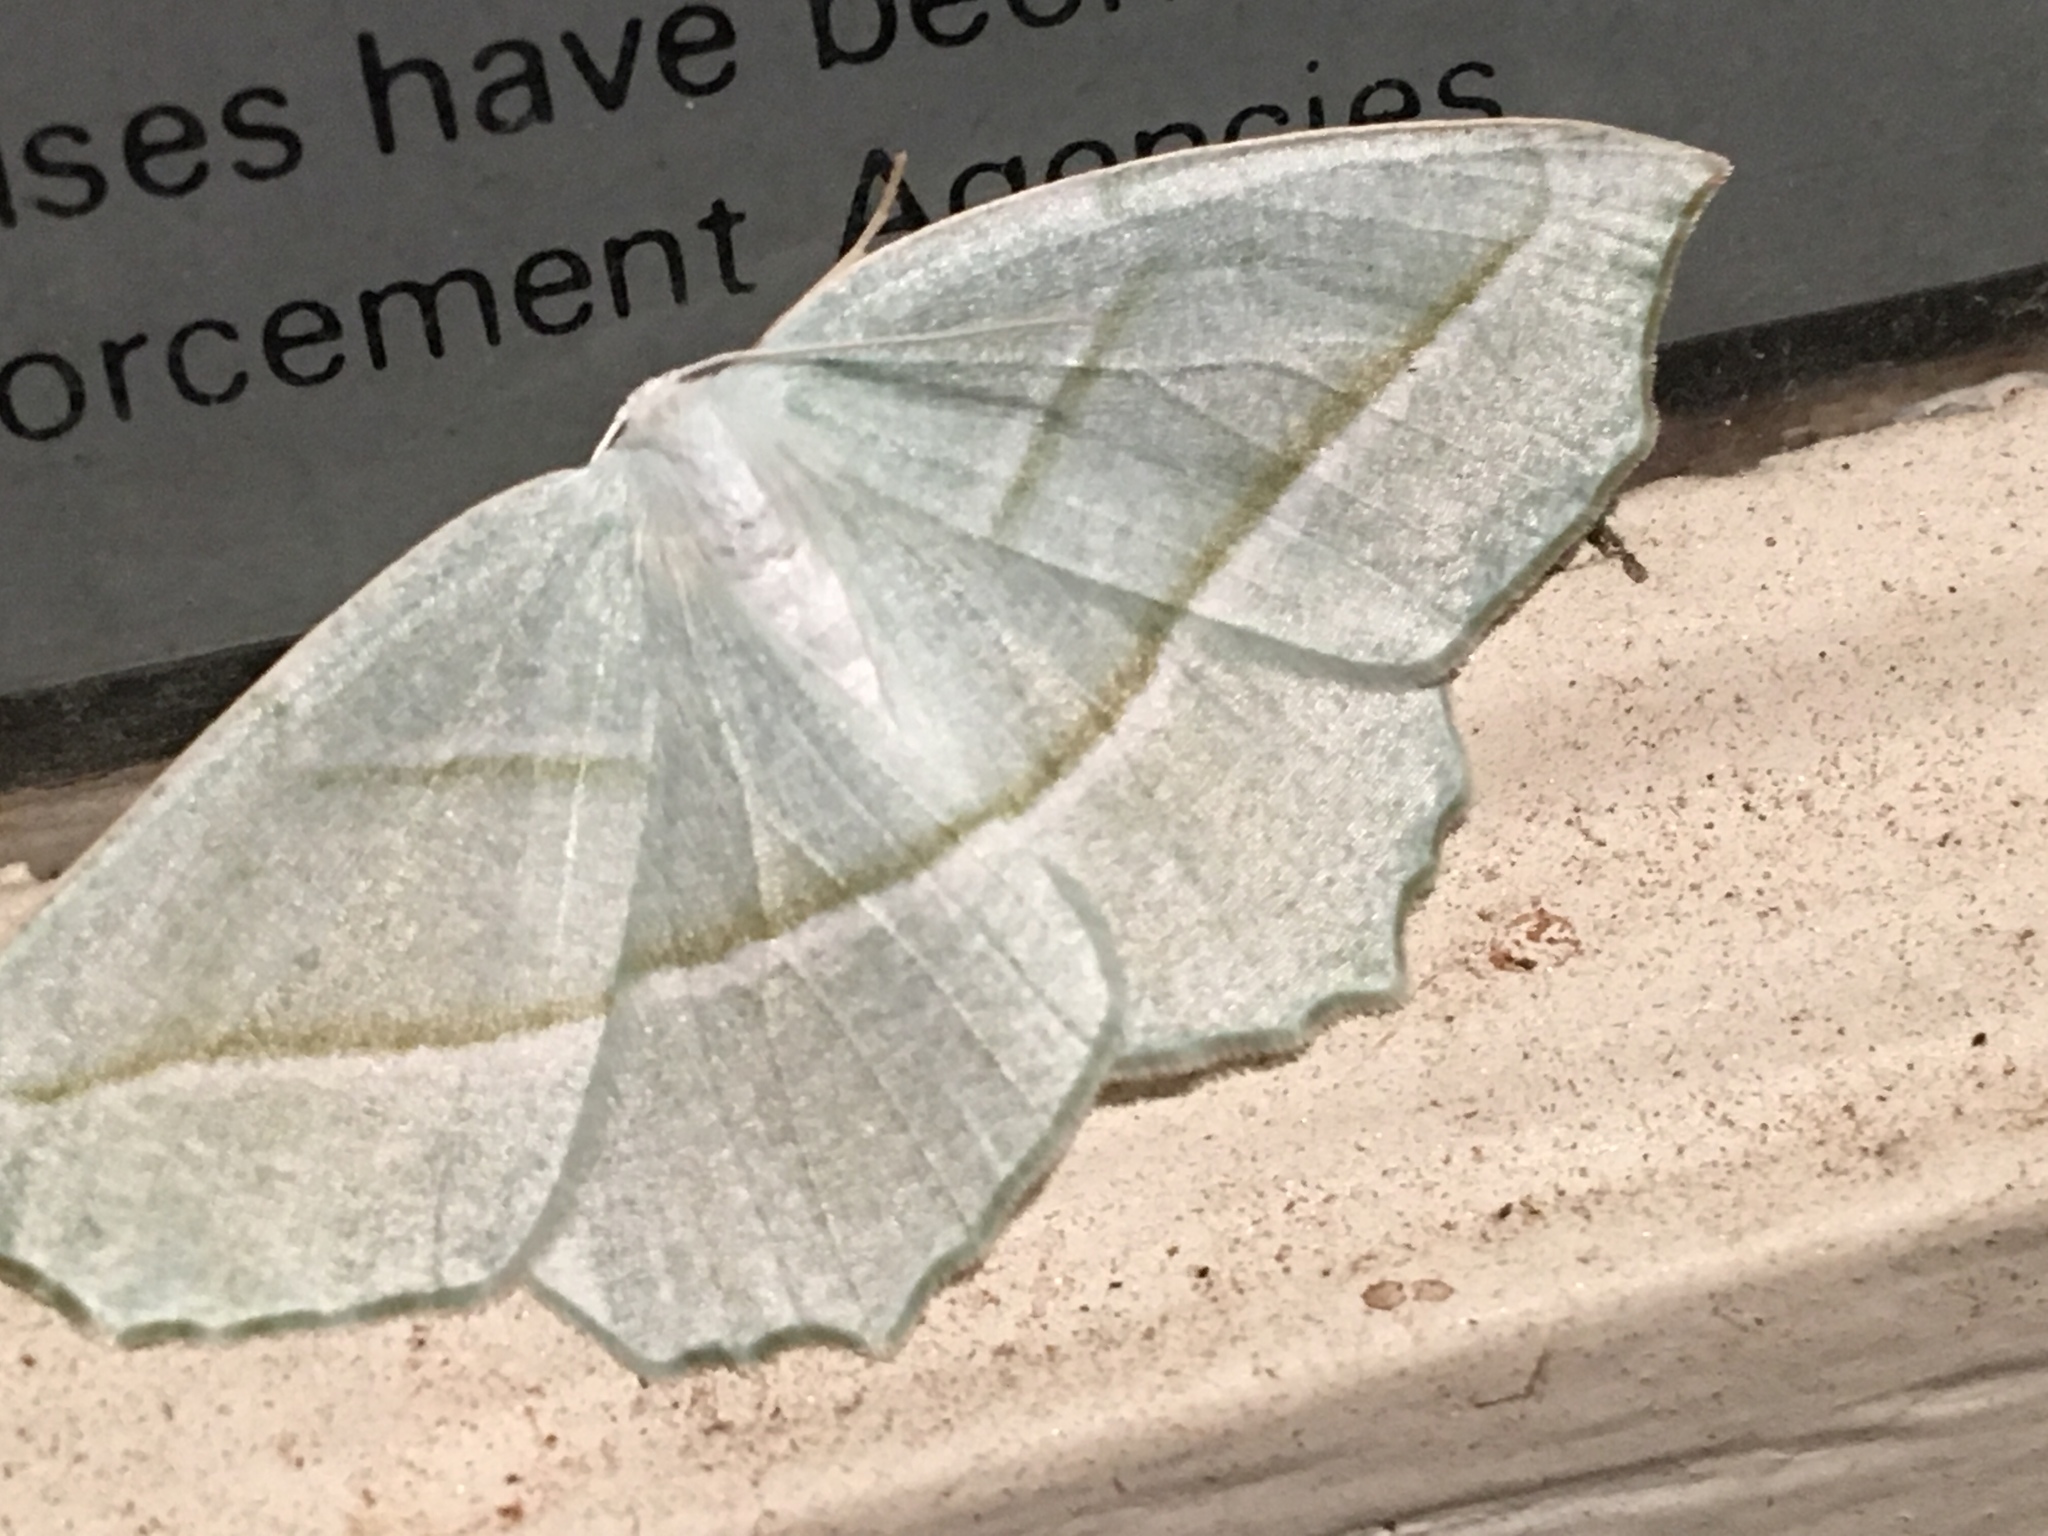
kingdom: Animalia
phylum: Arthropoda
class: Insecta
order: Lepidoptera
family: Geometridae
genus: Campaea
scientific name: Campaea perlata
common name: Fringed looper
